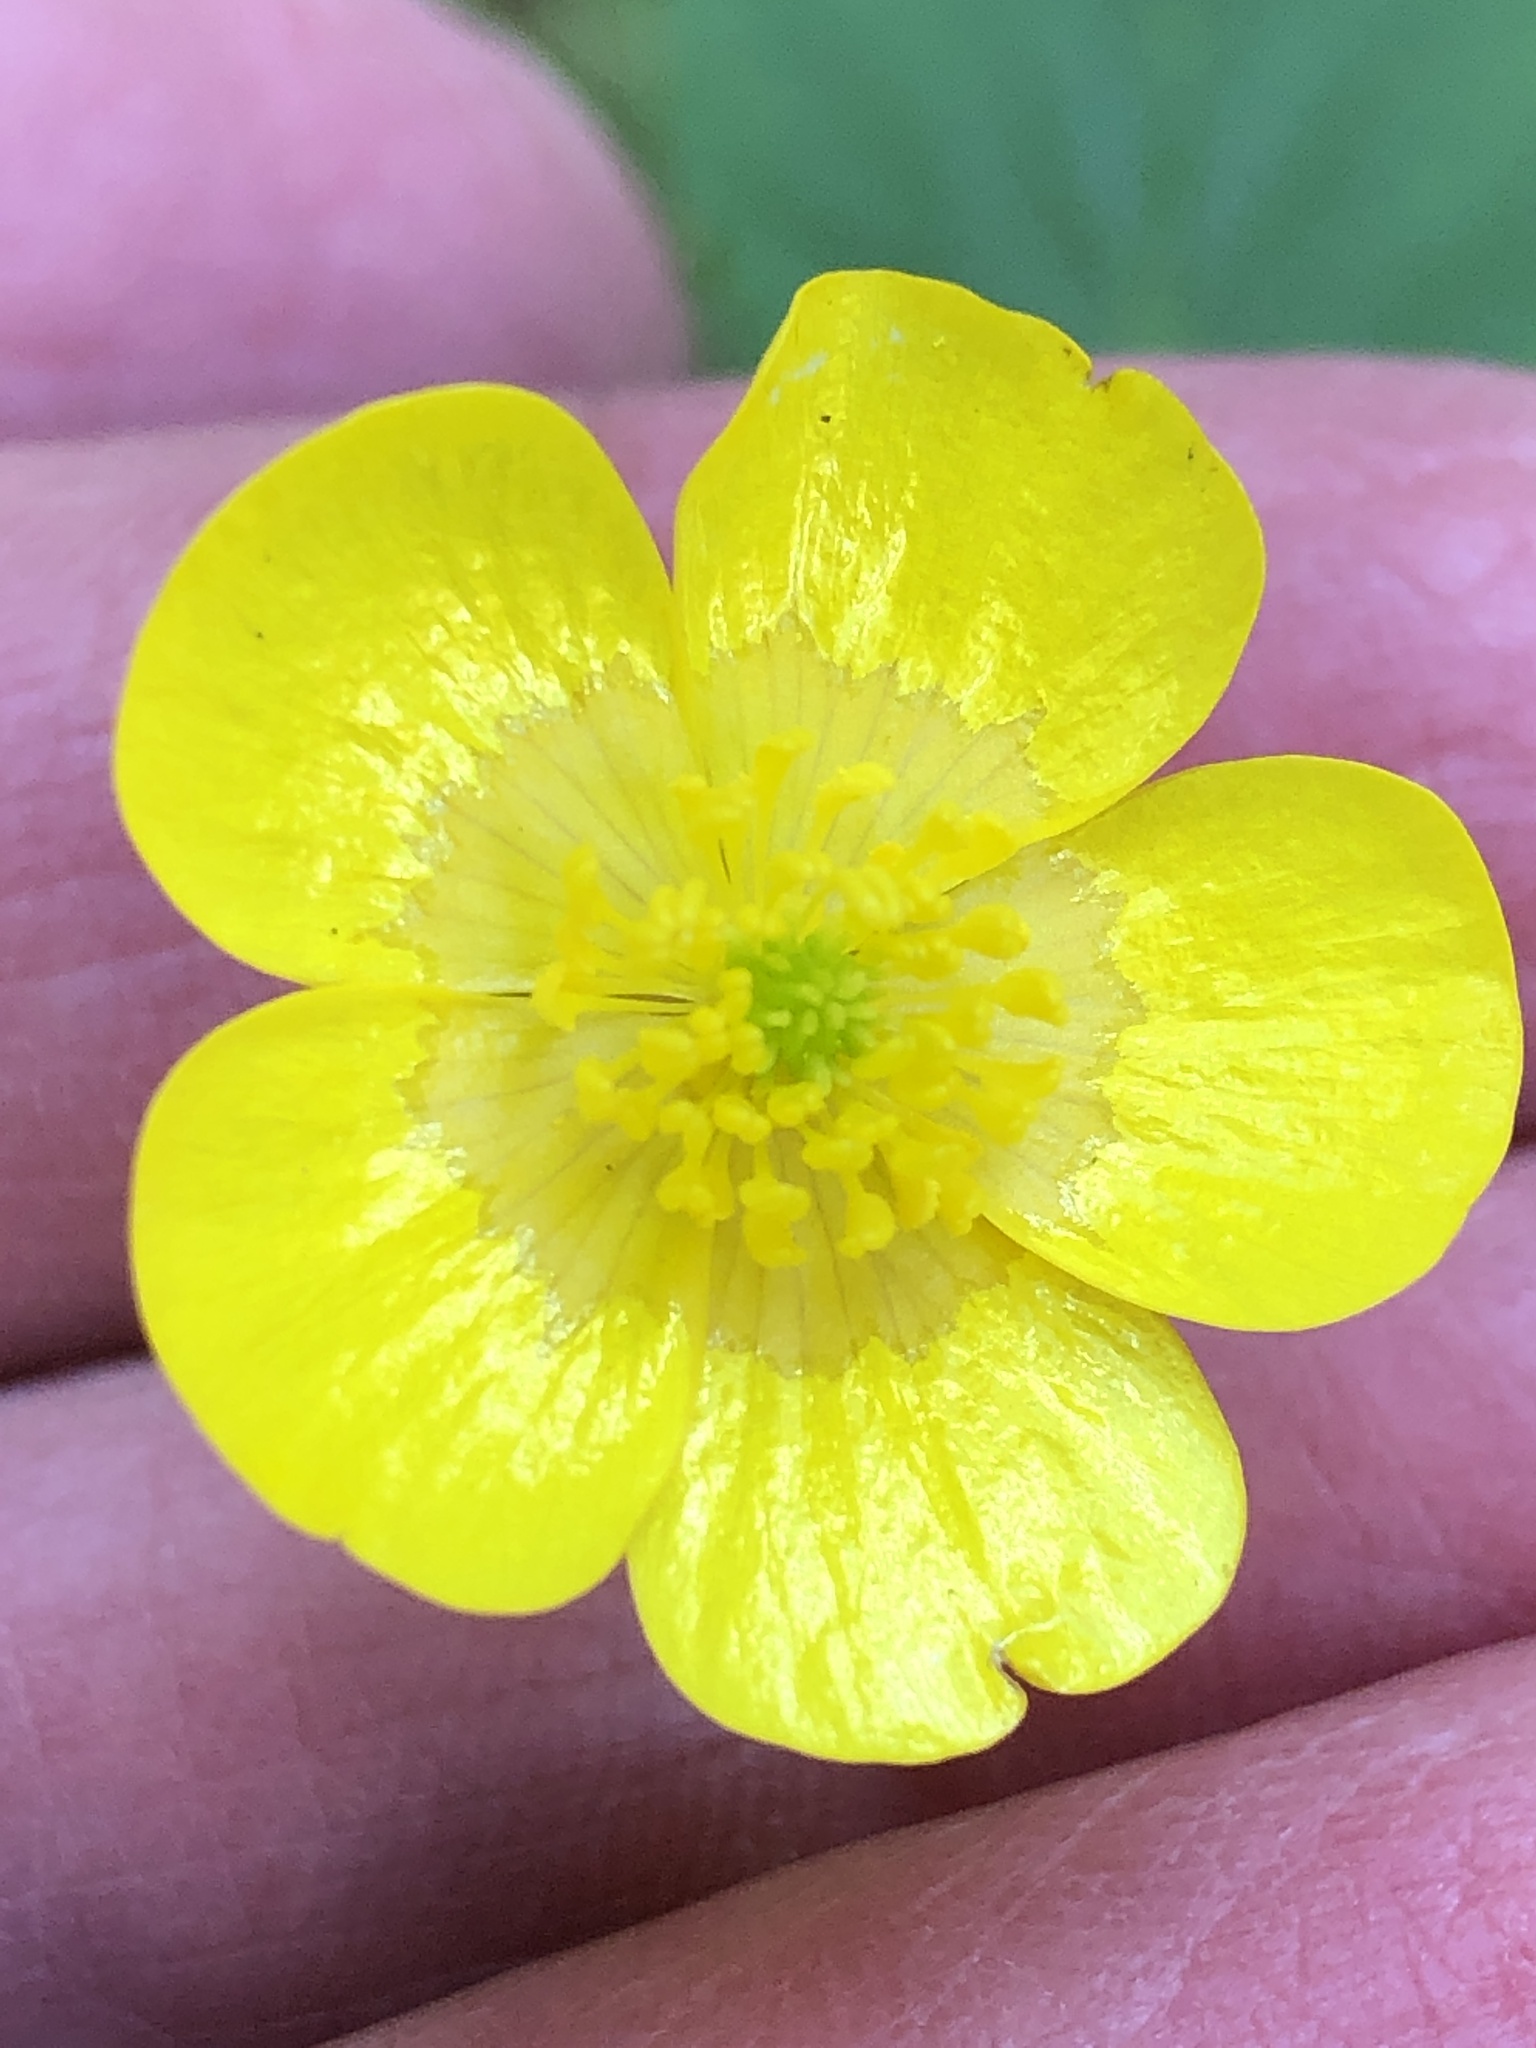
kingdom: Plantae
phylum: Tracheophyta
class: Magnoliopsida
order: Ranunculales
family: Ranunculaceae
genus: Ranunculus
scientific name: Ranunculus acris
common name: Meadow buttercup
